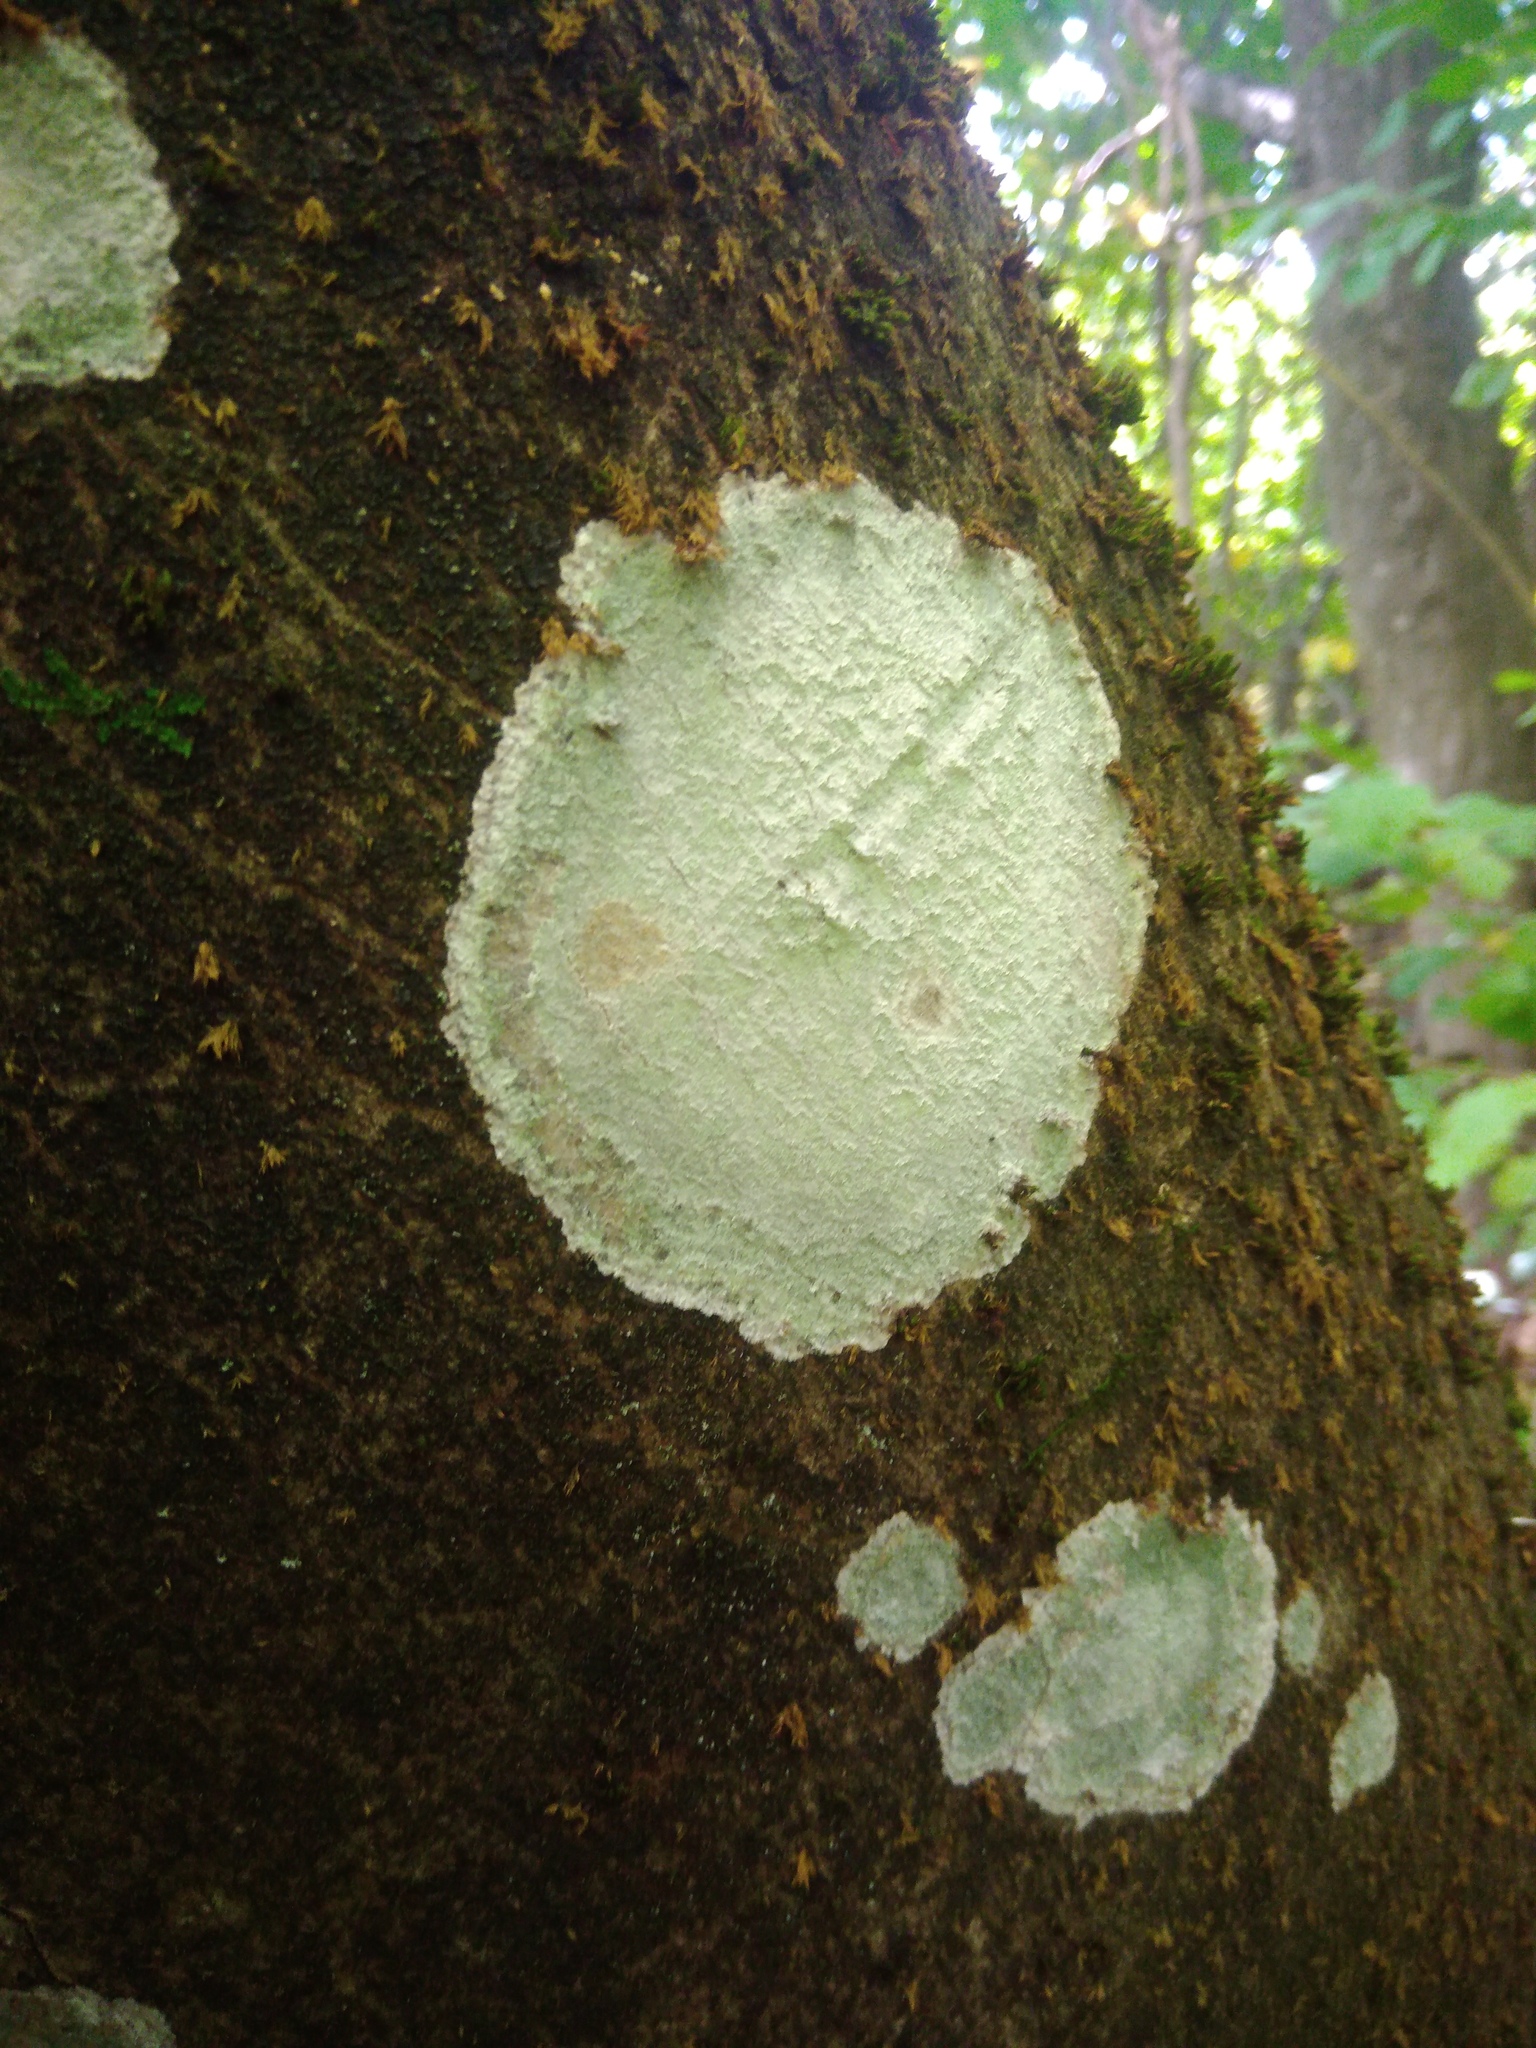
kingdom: Fungi
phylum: Ascomycota
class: Lecanoromycetes
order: Ostropales
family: Phlyctidaceae
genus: Phlyctis
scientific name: Phlyctis argena
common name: Whitewash lichen
